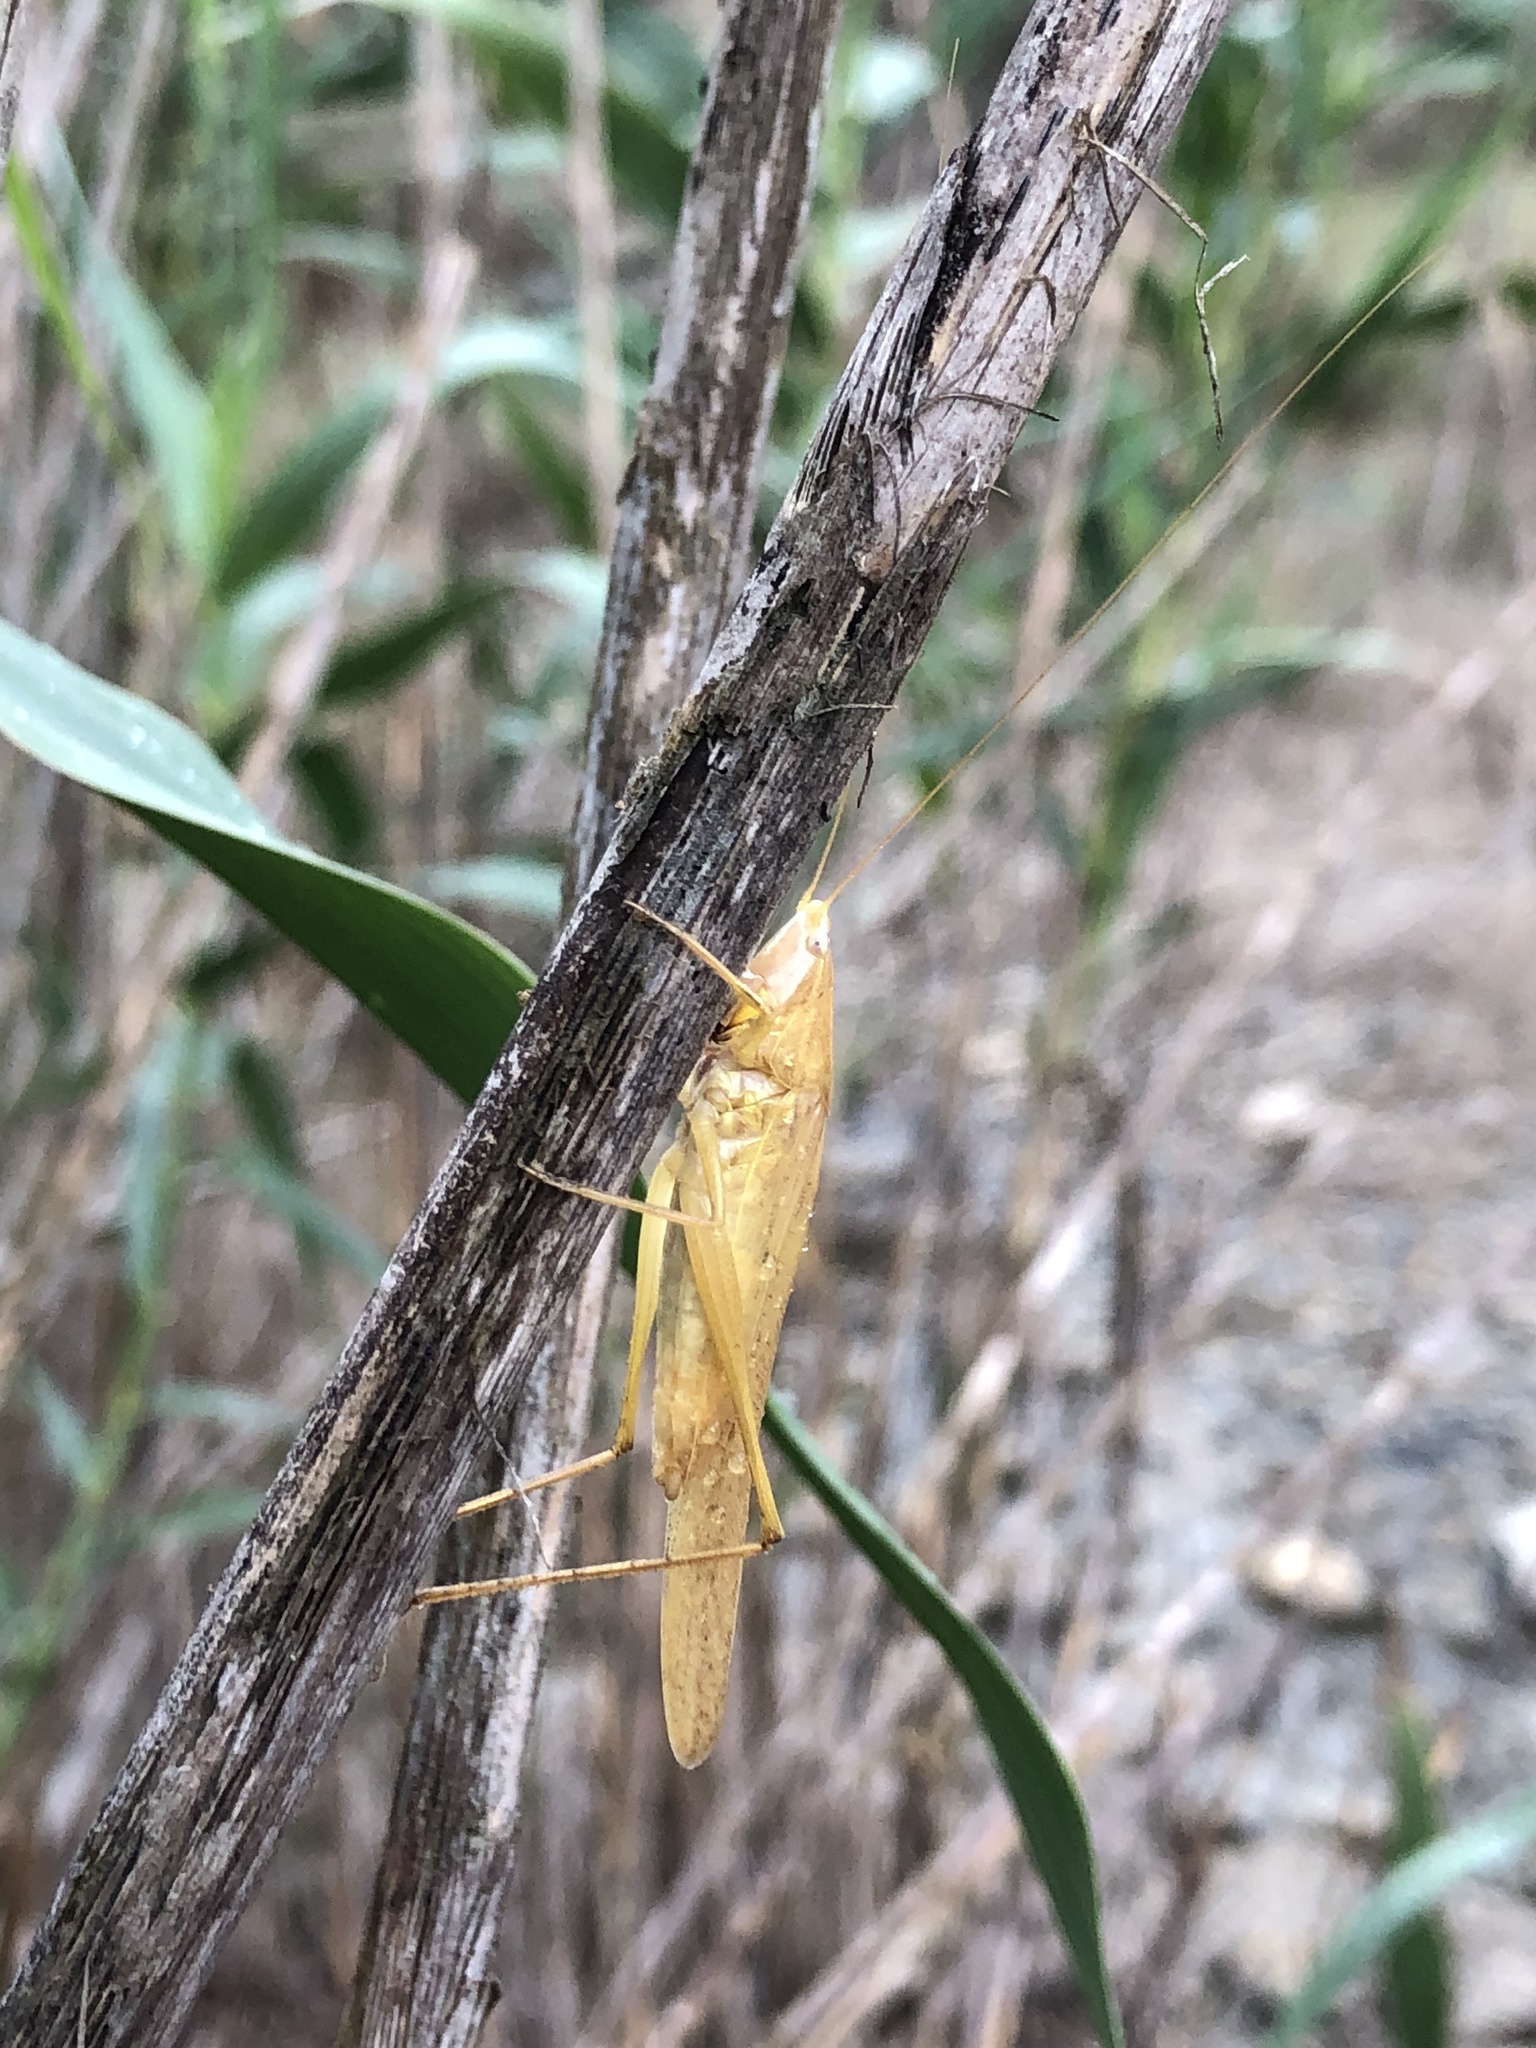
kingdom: Animalia
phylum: Arthropoda
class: Insecta
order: Orthoptera
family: Tettigoniidae
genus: Ruspolia
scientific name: Ruspolia nitidula
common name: Large conehead
